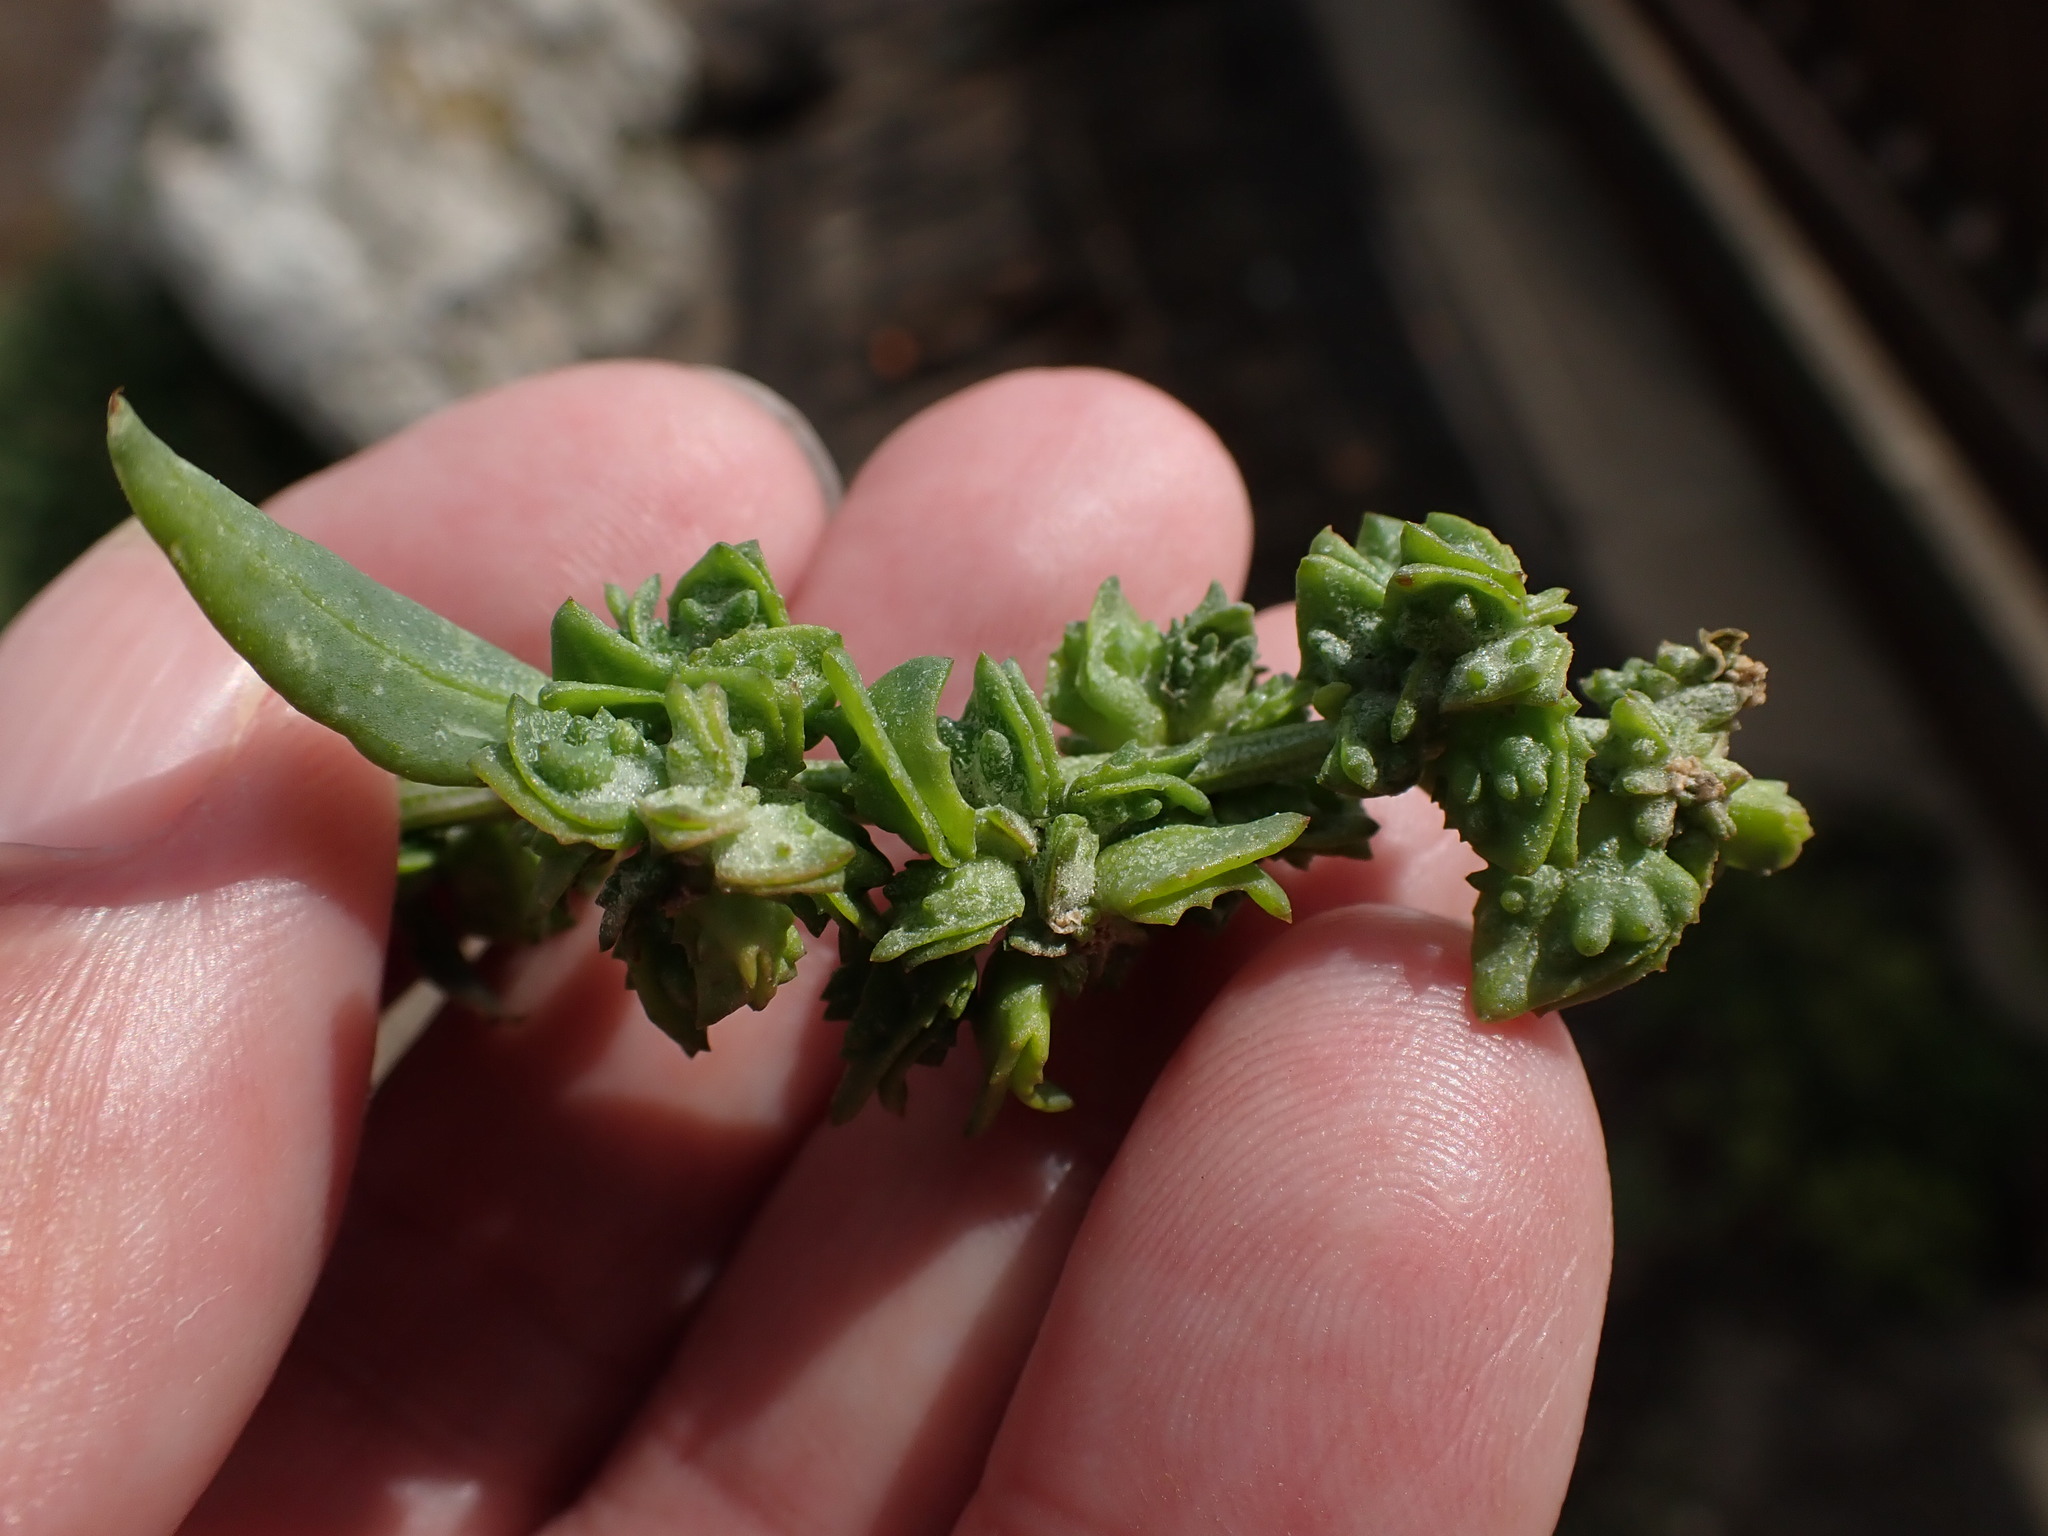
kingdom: Plantae
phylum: Tracheophyta
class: Magnoliopsida
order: Caryophyllales
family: Amaranthaceae
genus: Atriplex
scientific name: Atriplex prostrata
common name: Spear-leaved orache
